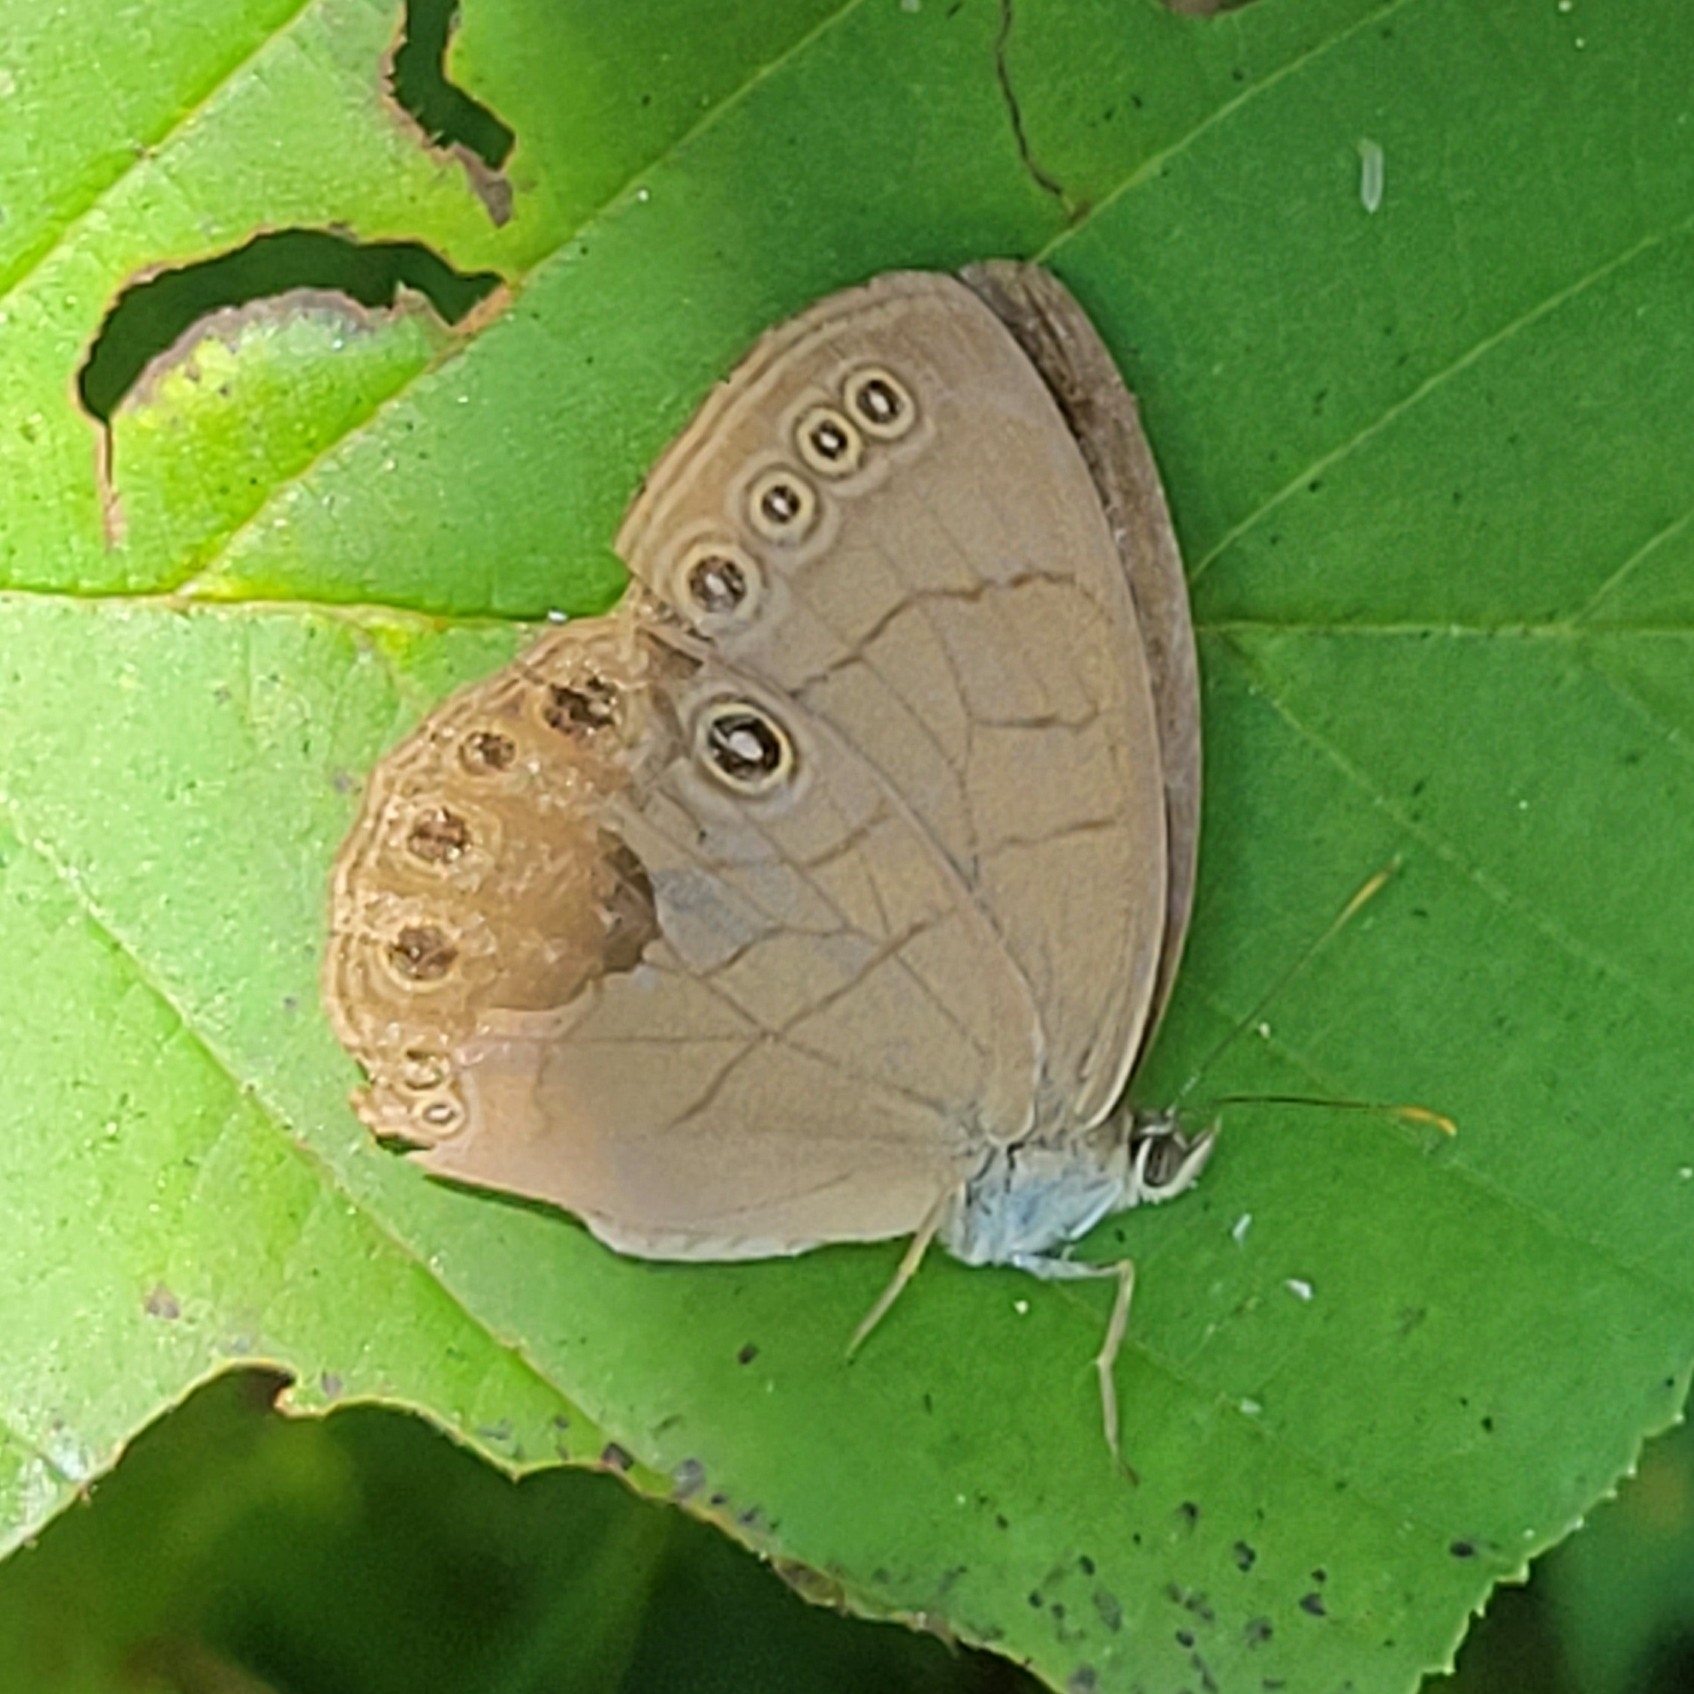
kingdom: Animalia
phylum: Arthropoda
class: Insecta
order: Lepidoptera
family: Nymphalidae
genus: Lethe
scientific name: Lethe eurydice
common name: Eyed brown
